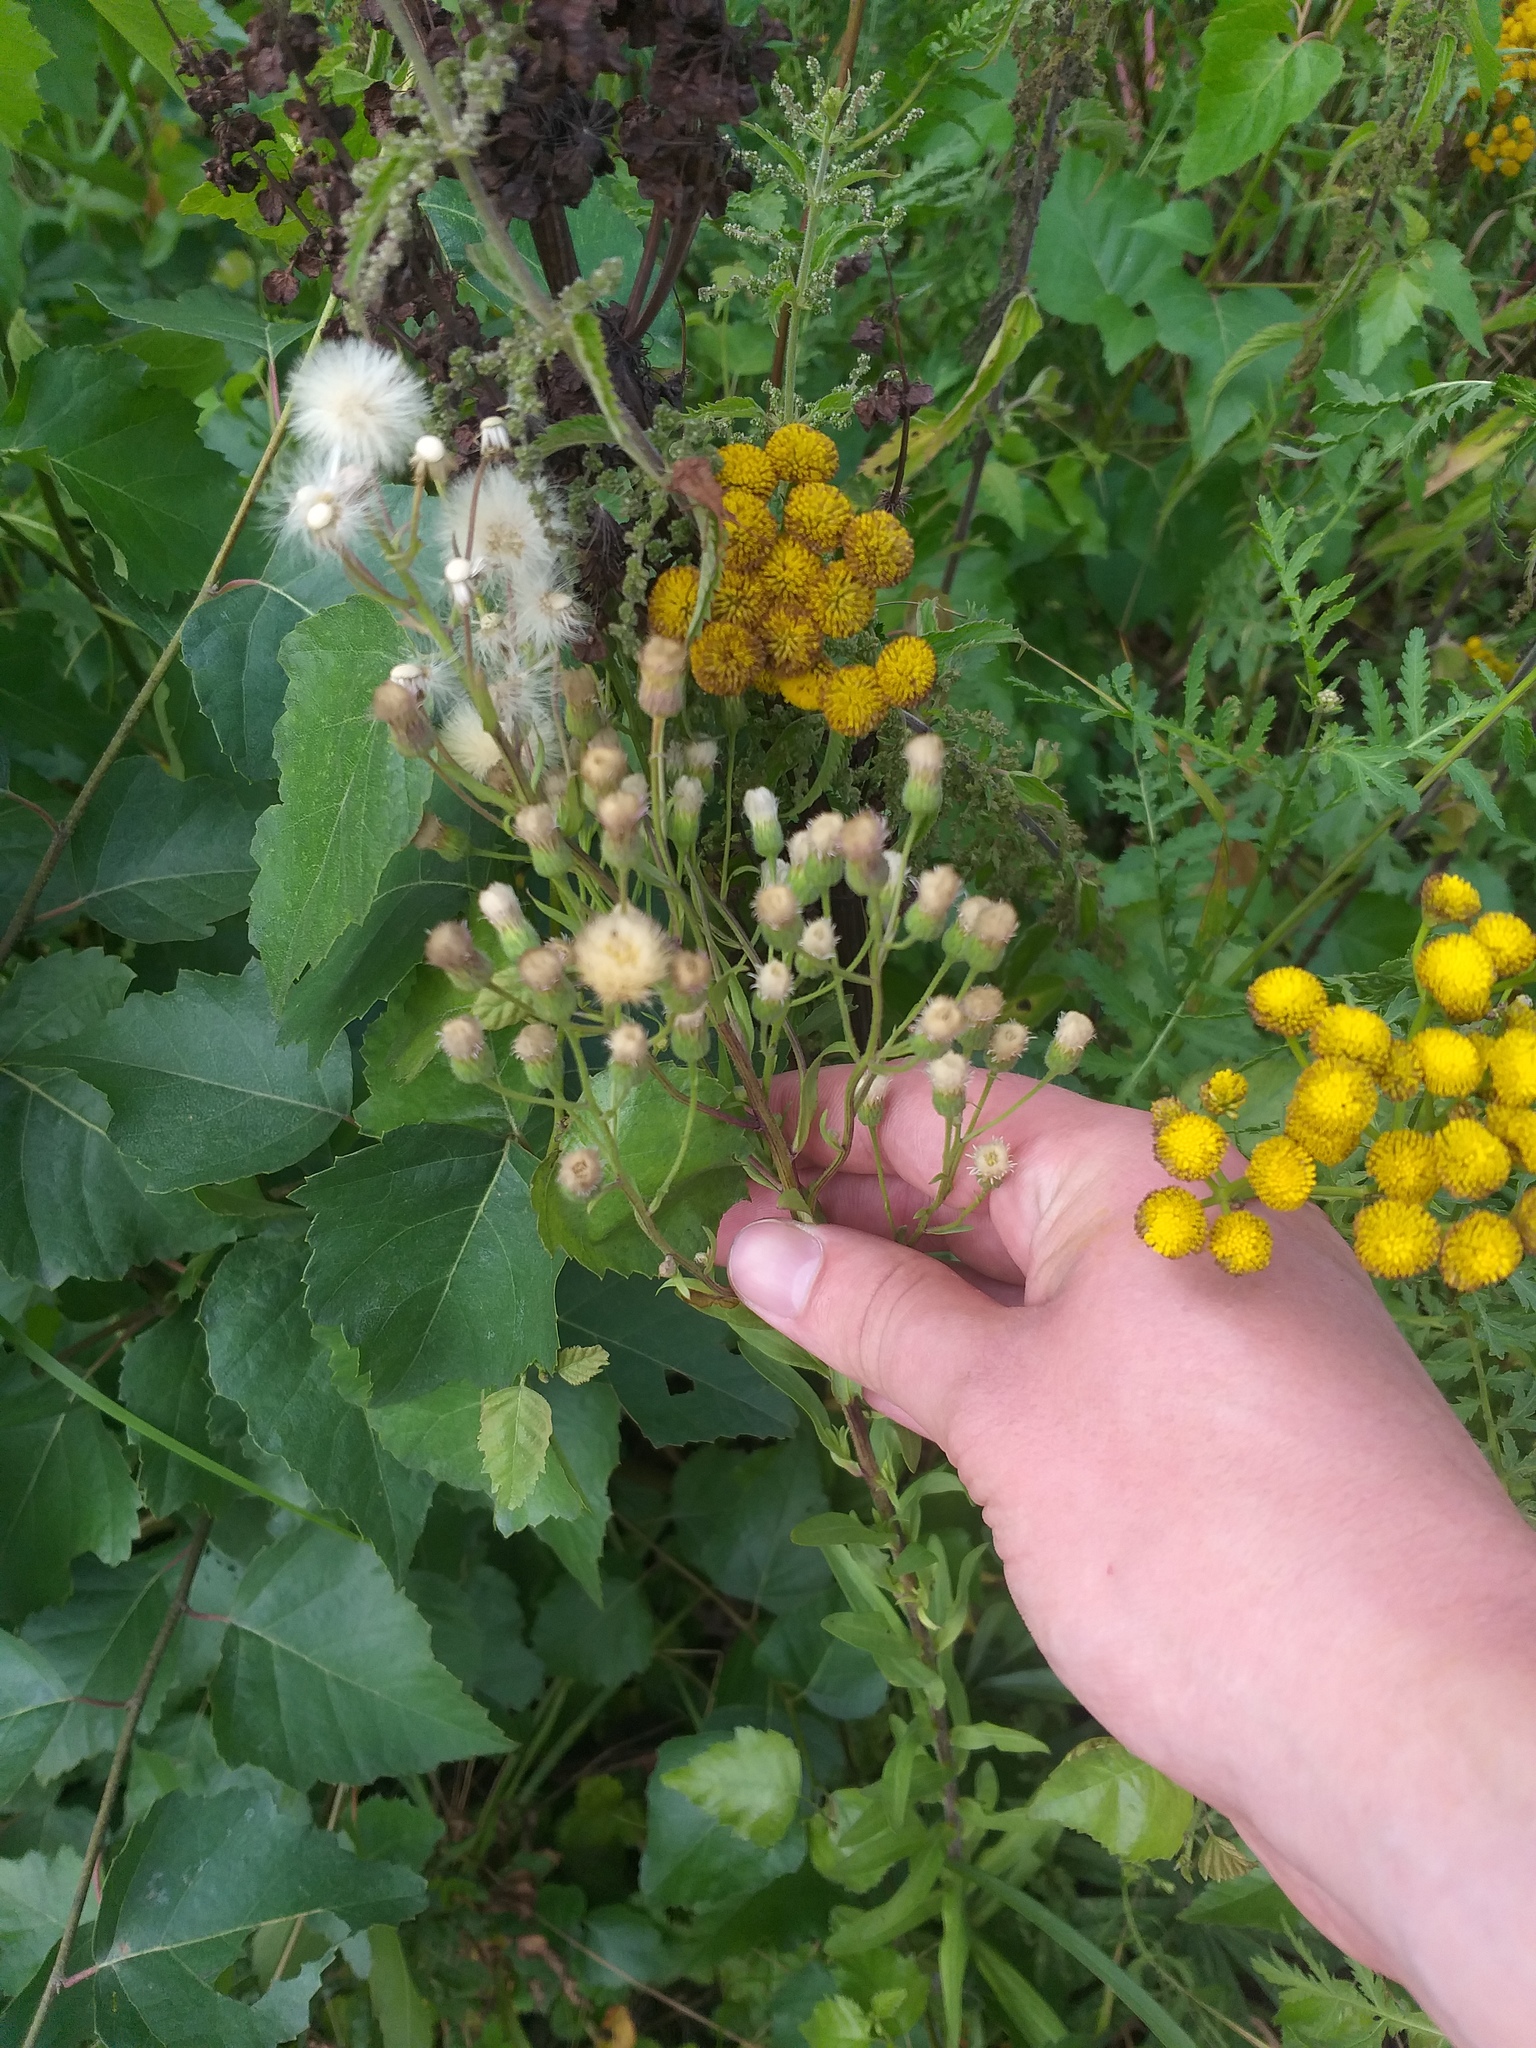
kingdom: Plantae
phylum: Tracheophyta
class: Magnoliopsida
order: Asterales
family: Asteraceae
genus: Erigeron
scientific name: Erigeron acris
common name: Blue fleabane
